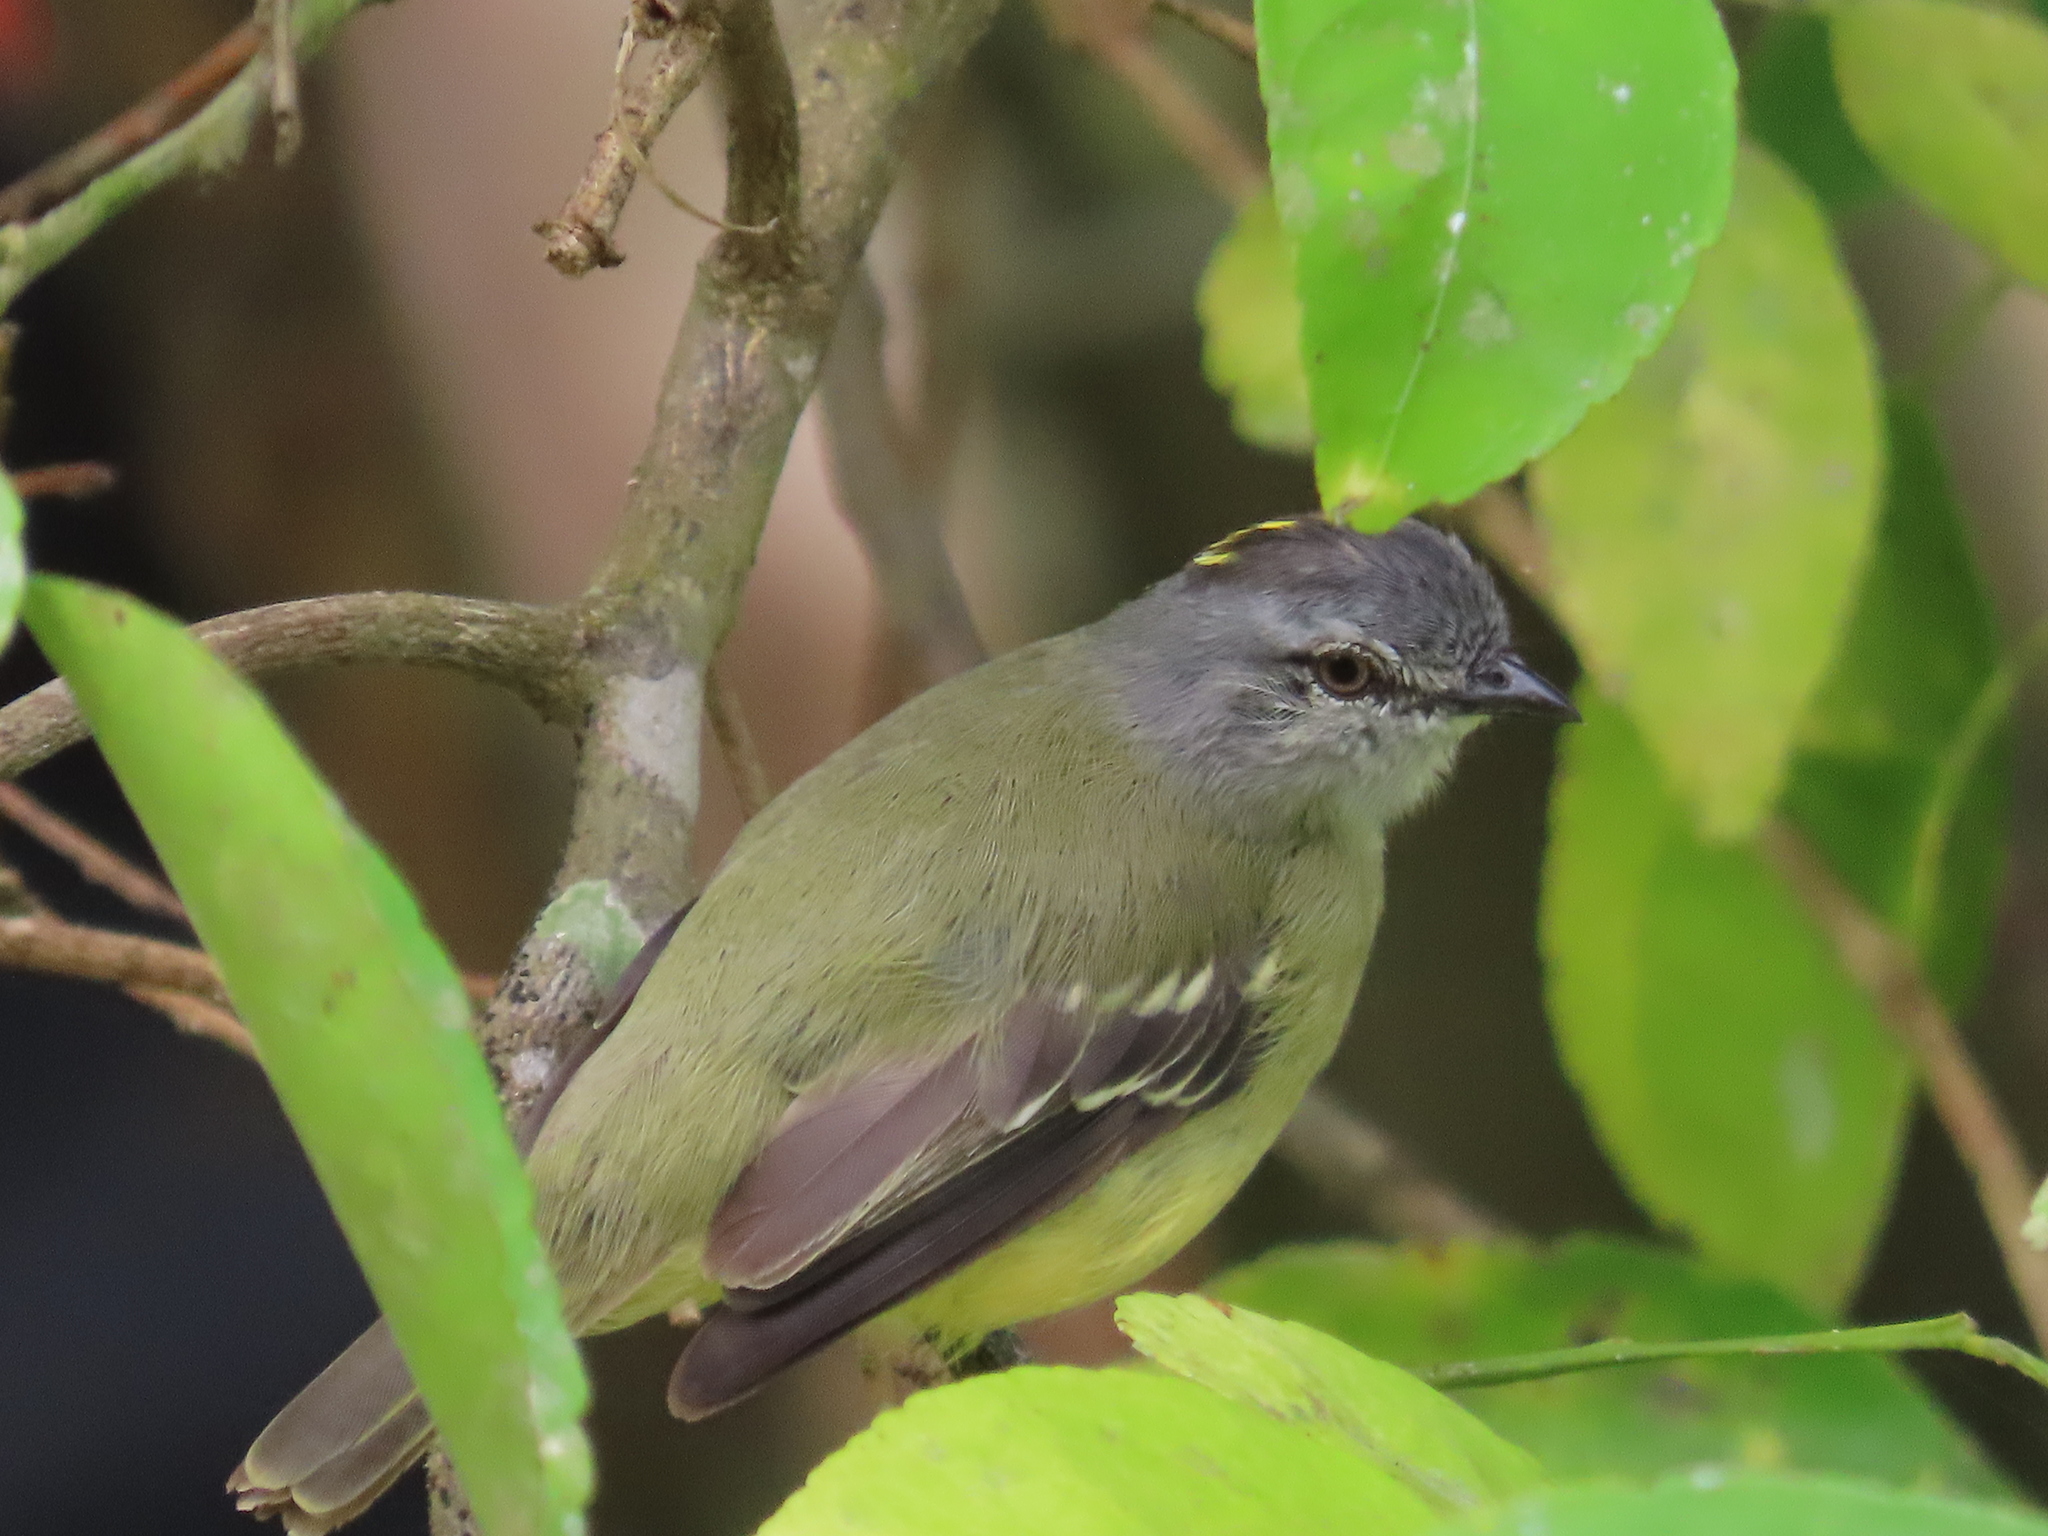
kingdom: Animalia
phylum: Chordata
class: Aves
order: Passeriformes
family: Tyrannidae
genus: Tyrannulus
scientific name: Tyrannulus elatus
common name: Yellow-crowned tyrannulet
